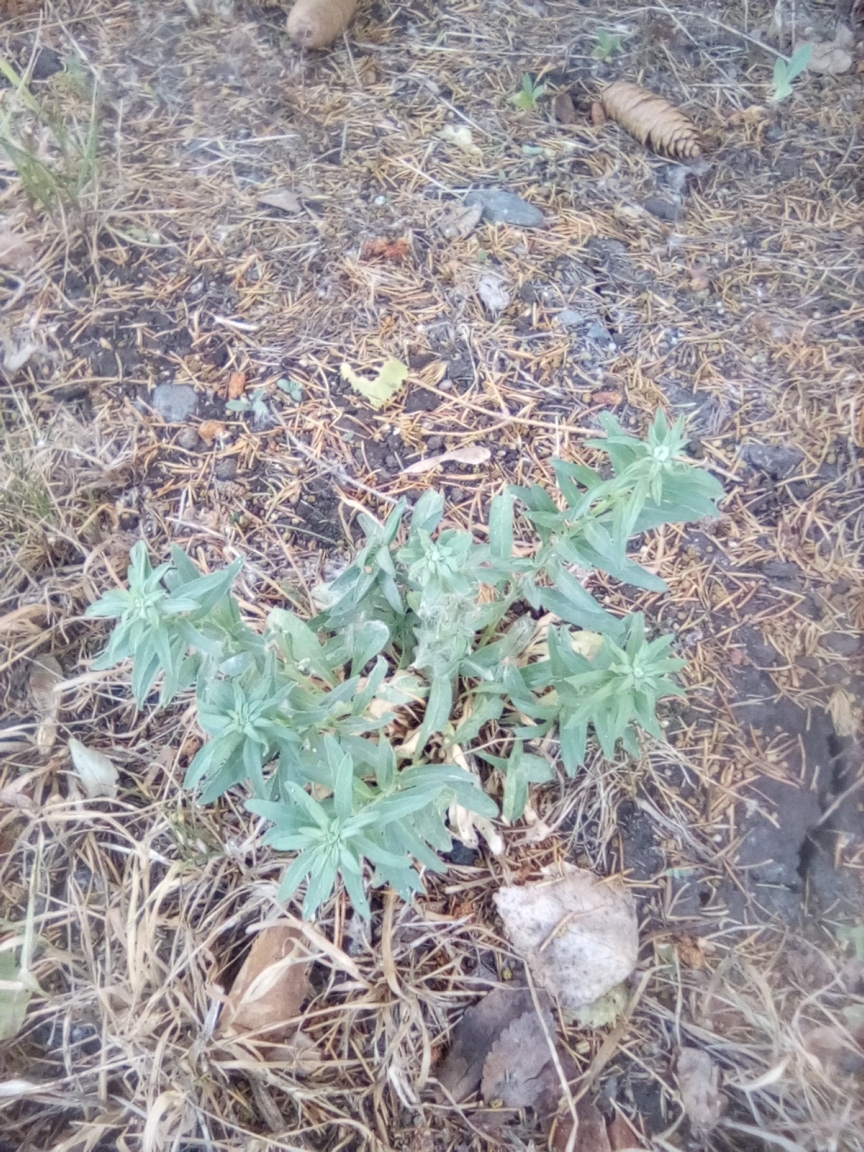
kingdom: Plantae
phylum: Tracheophyta
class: Magnoliopsida
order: Brassicales
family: Brassicaceae
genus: Berteroa
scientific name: Berteroa incana
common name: Hoary alison
